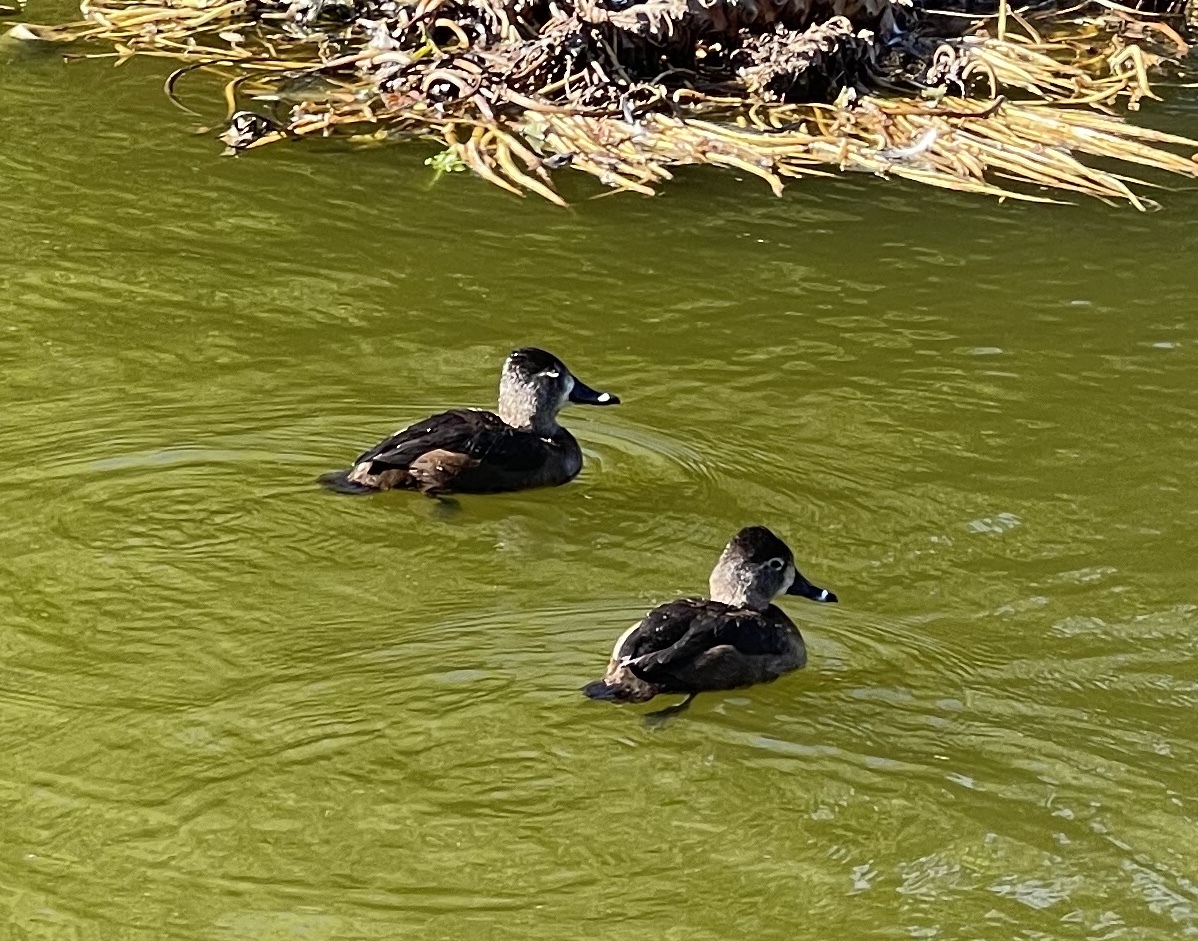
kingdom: Animalia
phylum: Chordata
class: Aves
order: Anseriformes
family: Anatidae
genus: Aythya
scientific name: Aythya collaris
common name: Ring-necked duck
